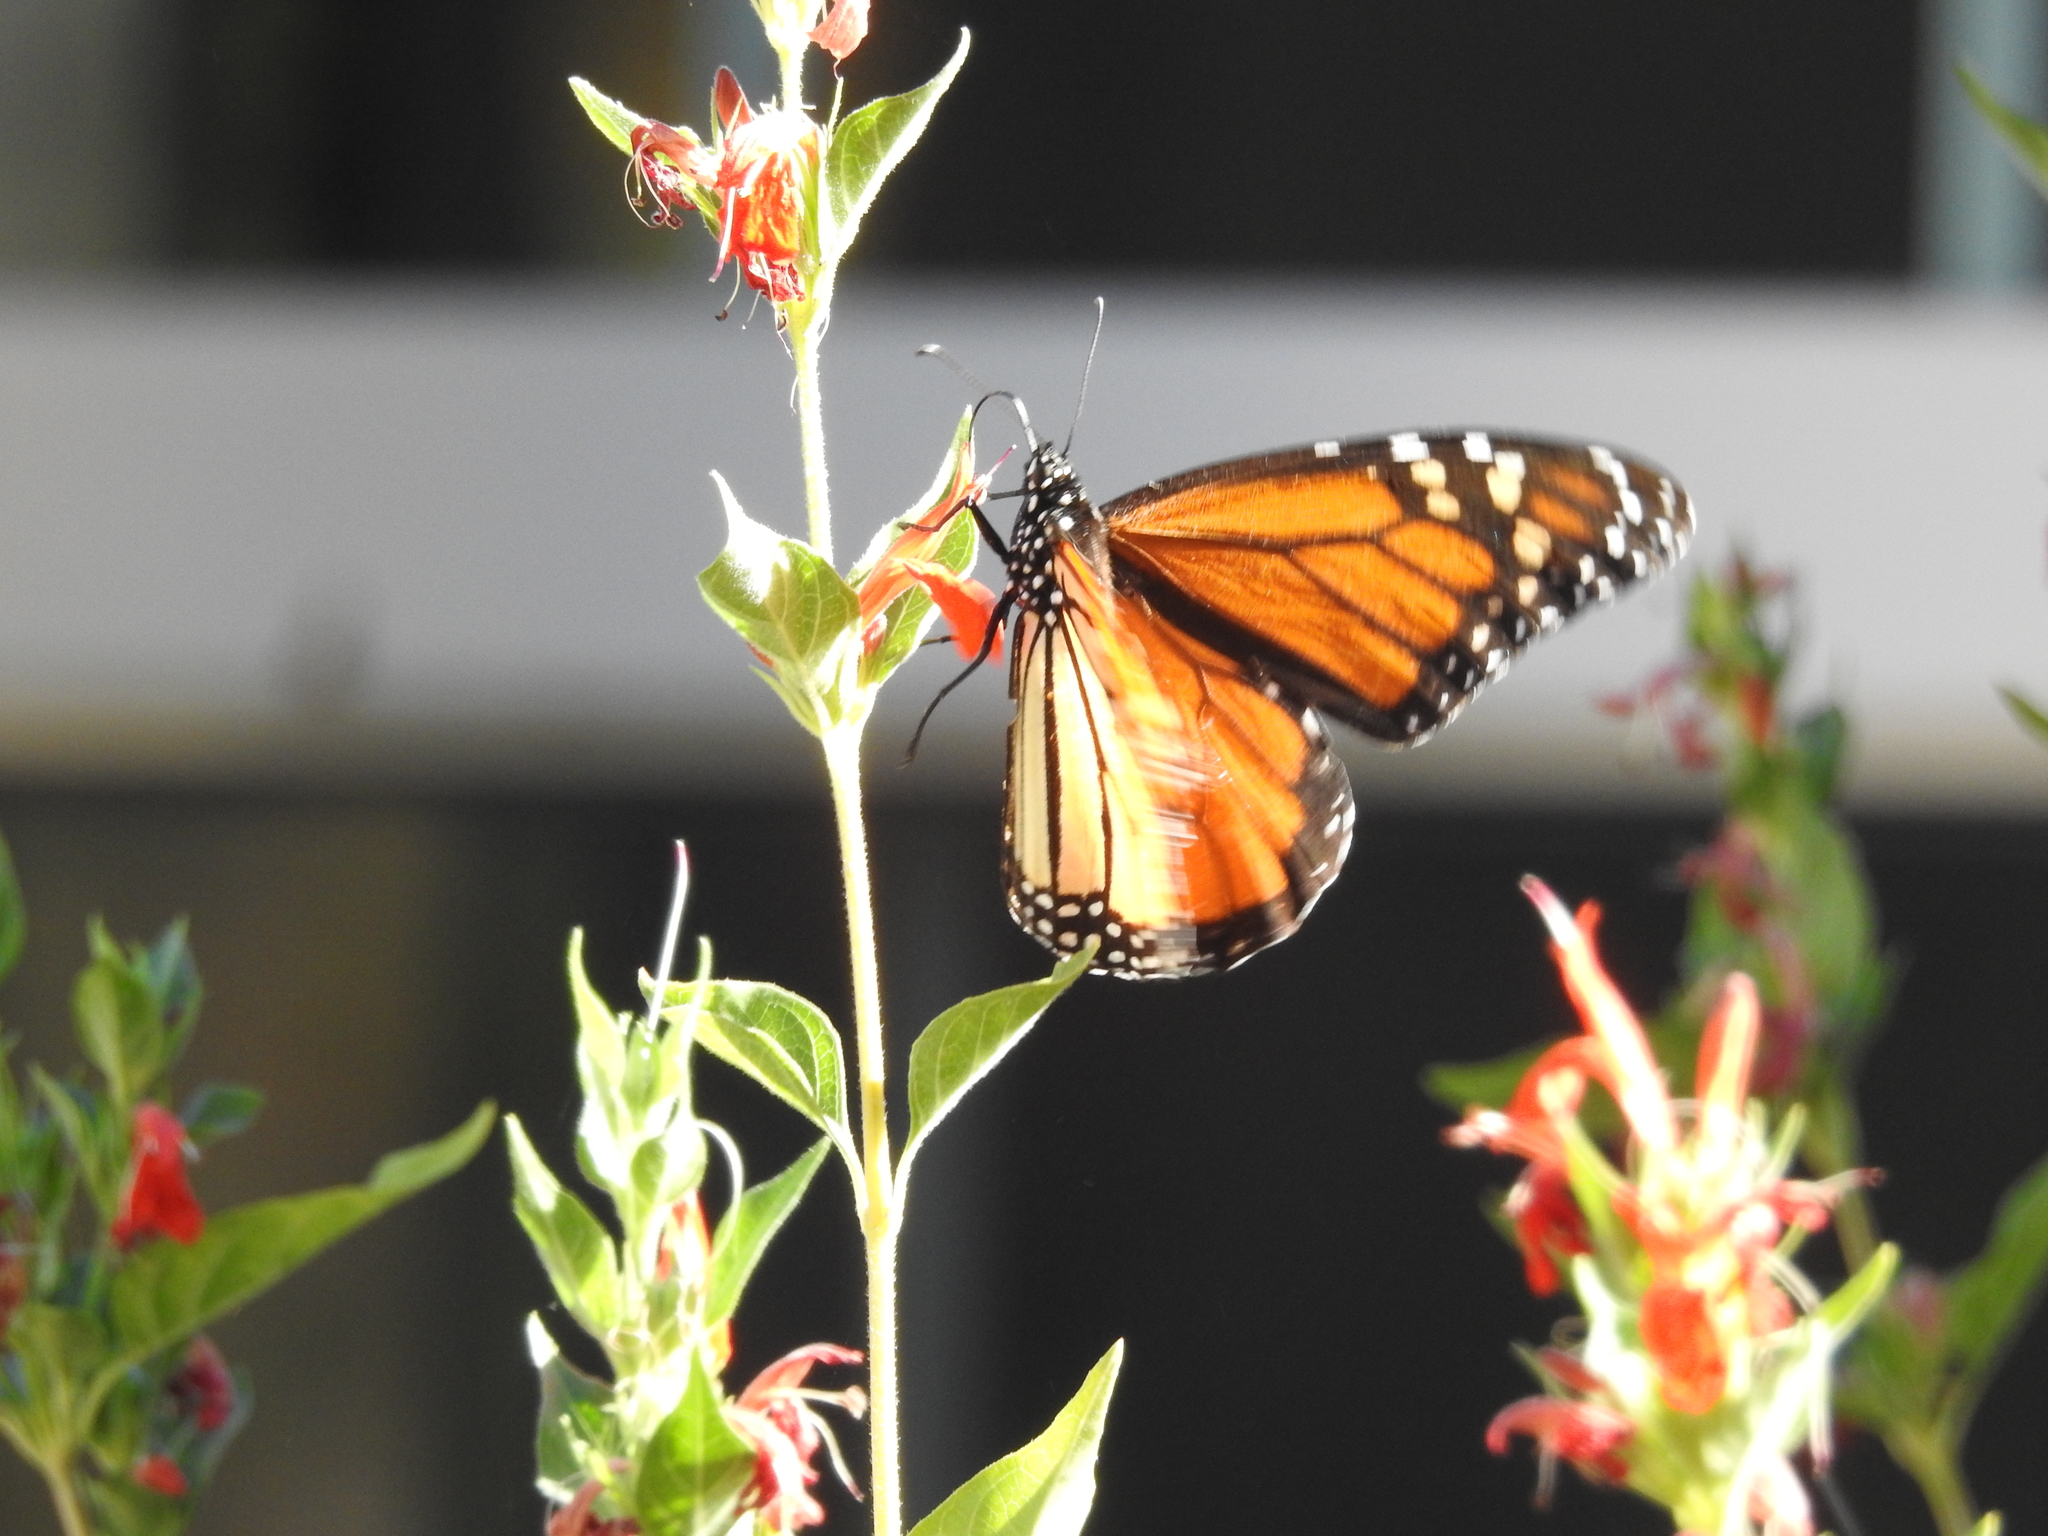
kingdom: Animalia
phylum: Arthropoda
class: Insecta
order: Lepidoptera
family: Nymphalidae
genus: Danaus
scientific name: Danaus plexippus
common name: Monarch
